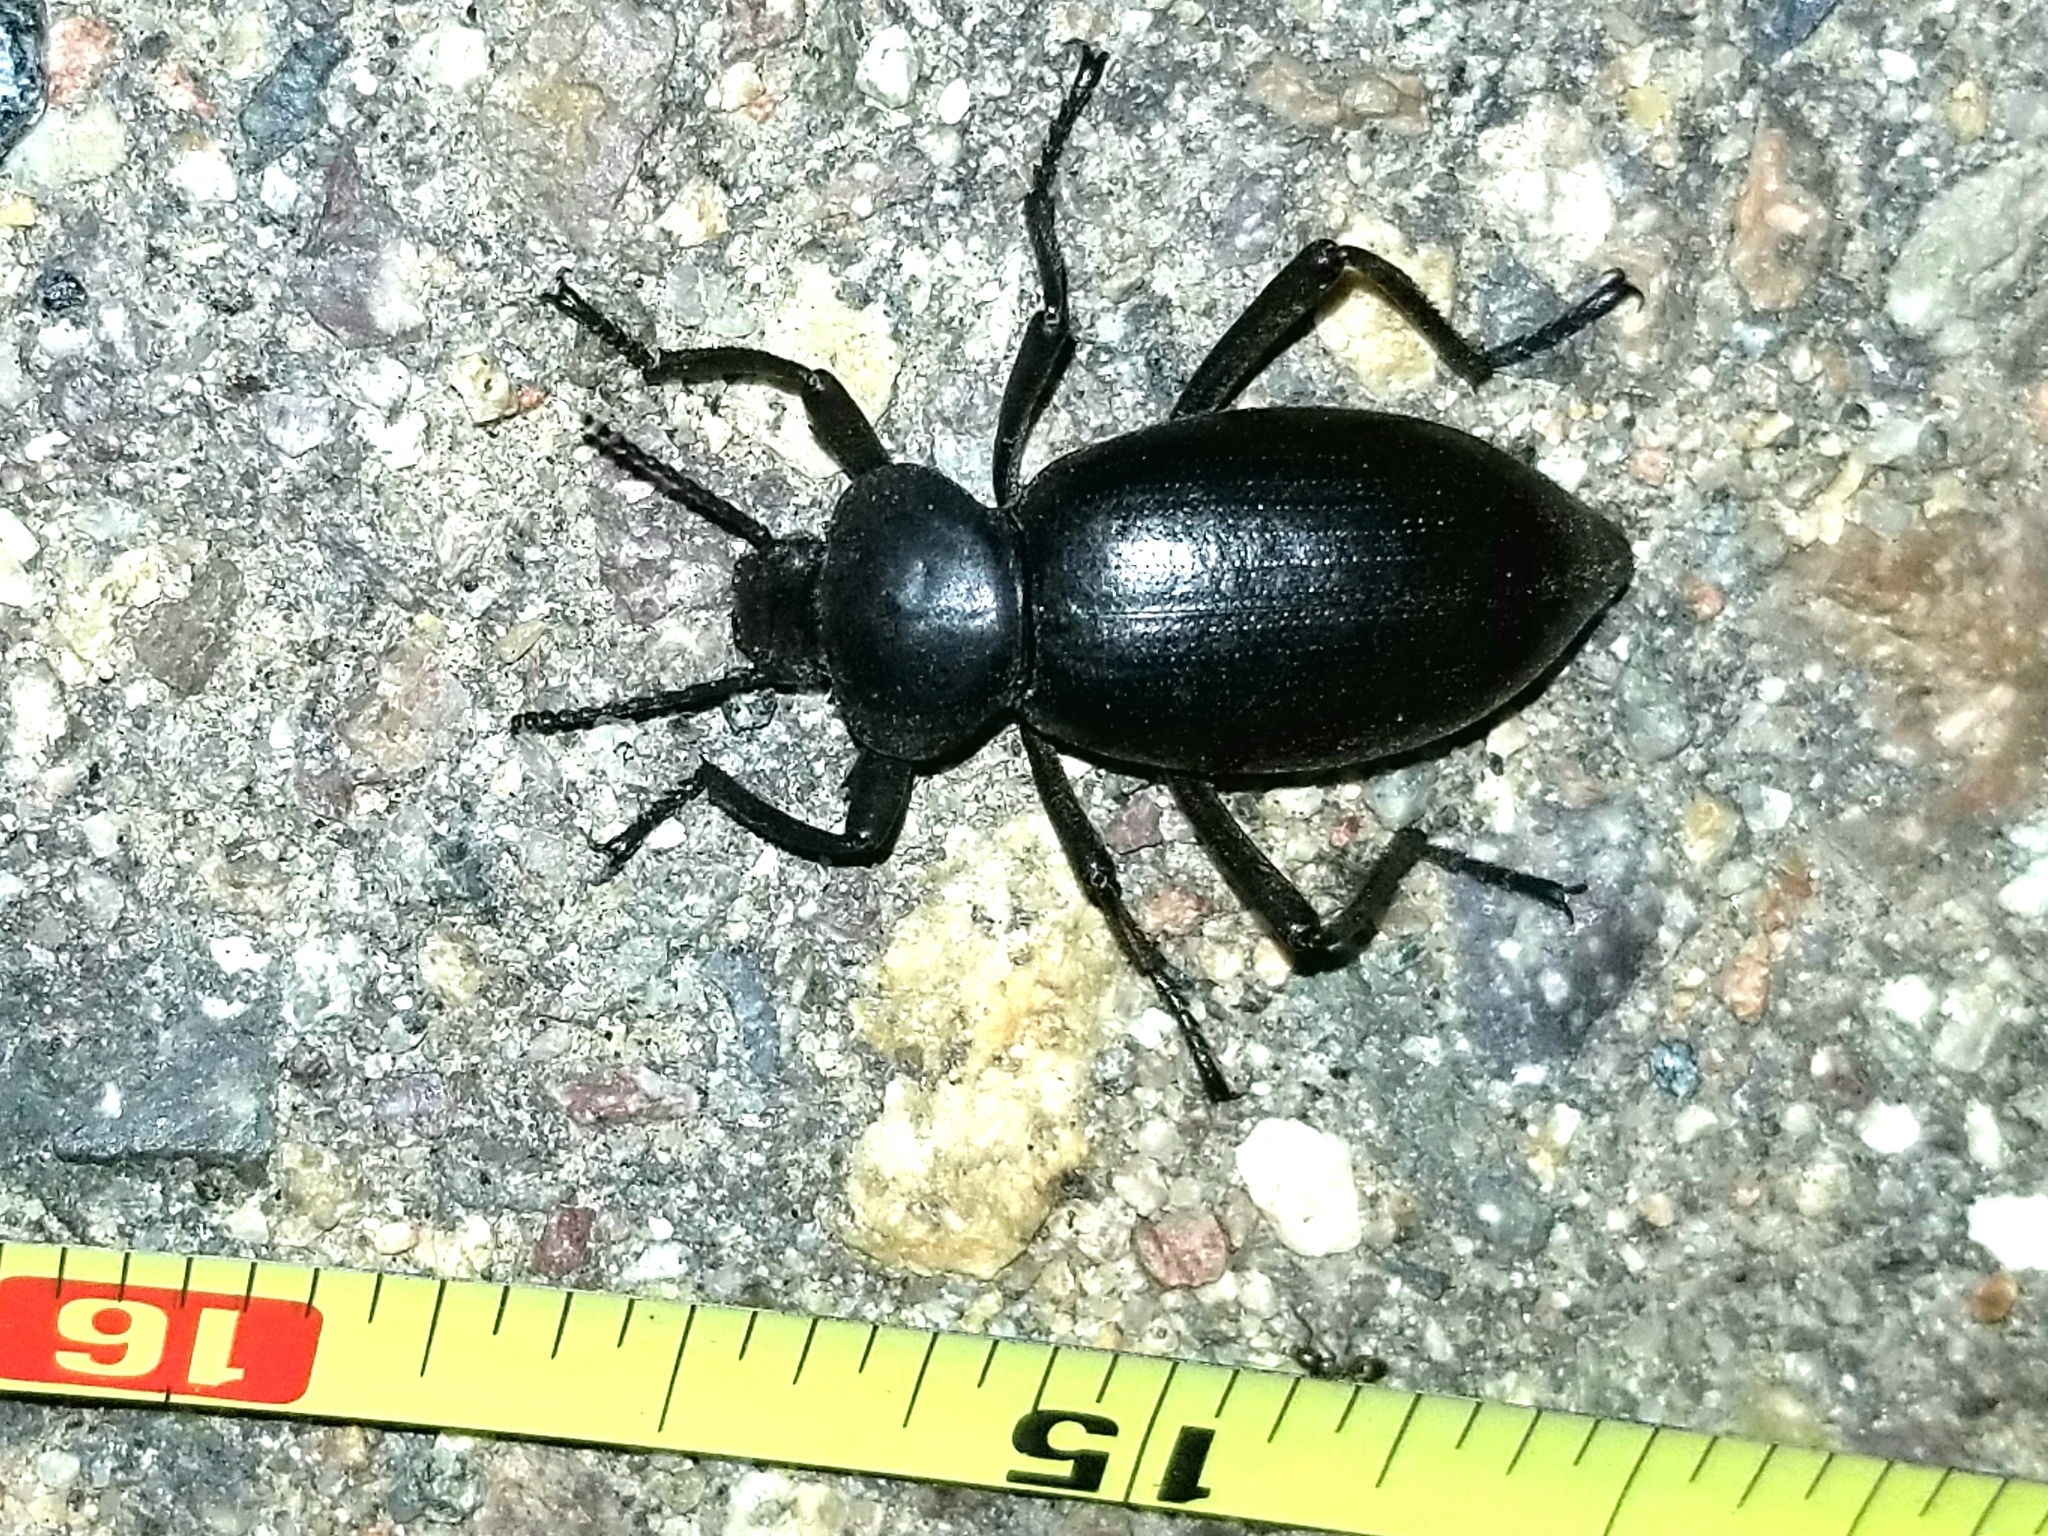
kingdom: Animalia
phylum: Arthropoda
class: Insecta
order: Coleoptera
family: Tenebrionidae
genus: Eleodes
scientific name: Eleodes acuticauda
